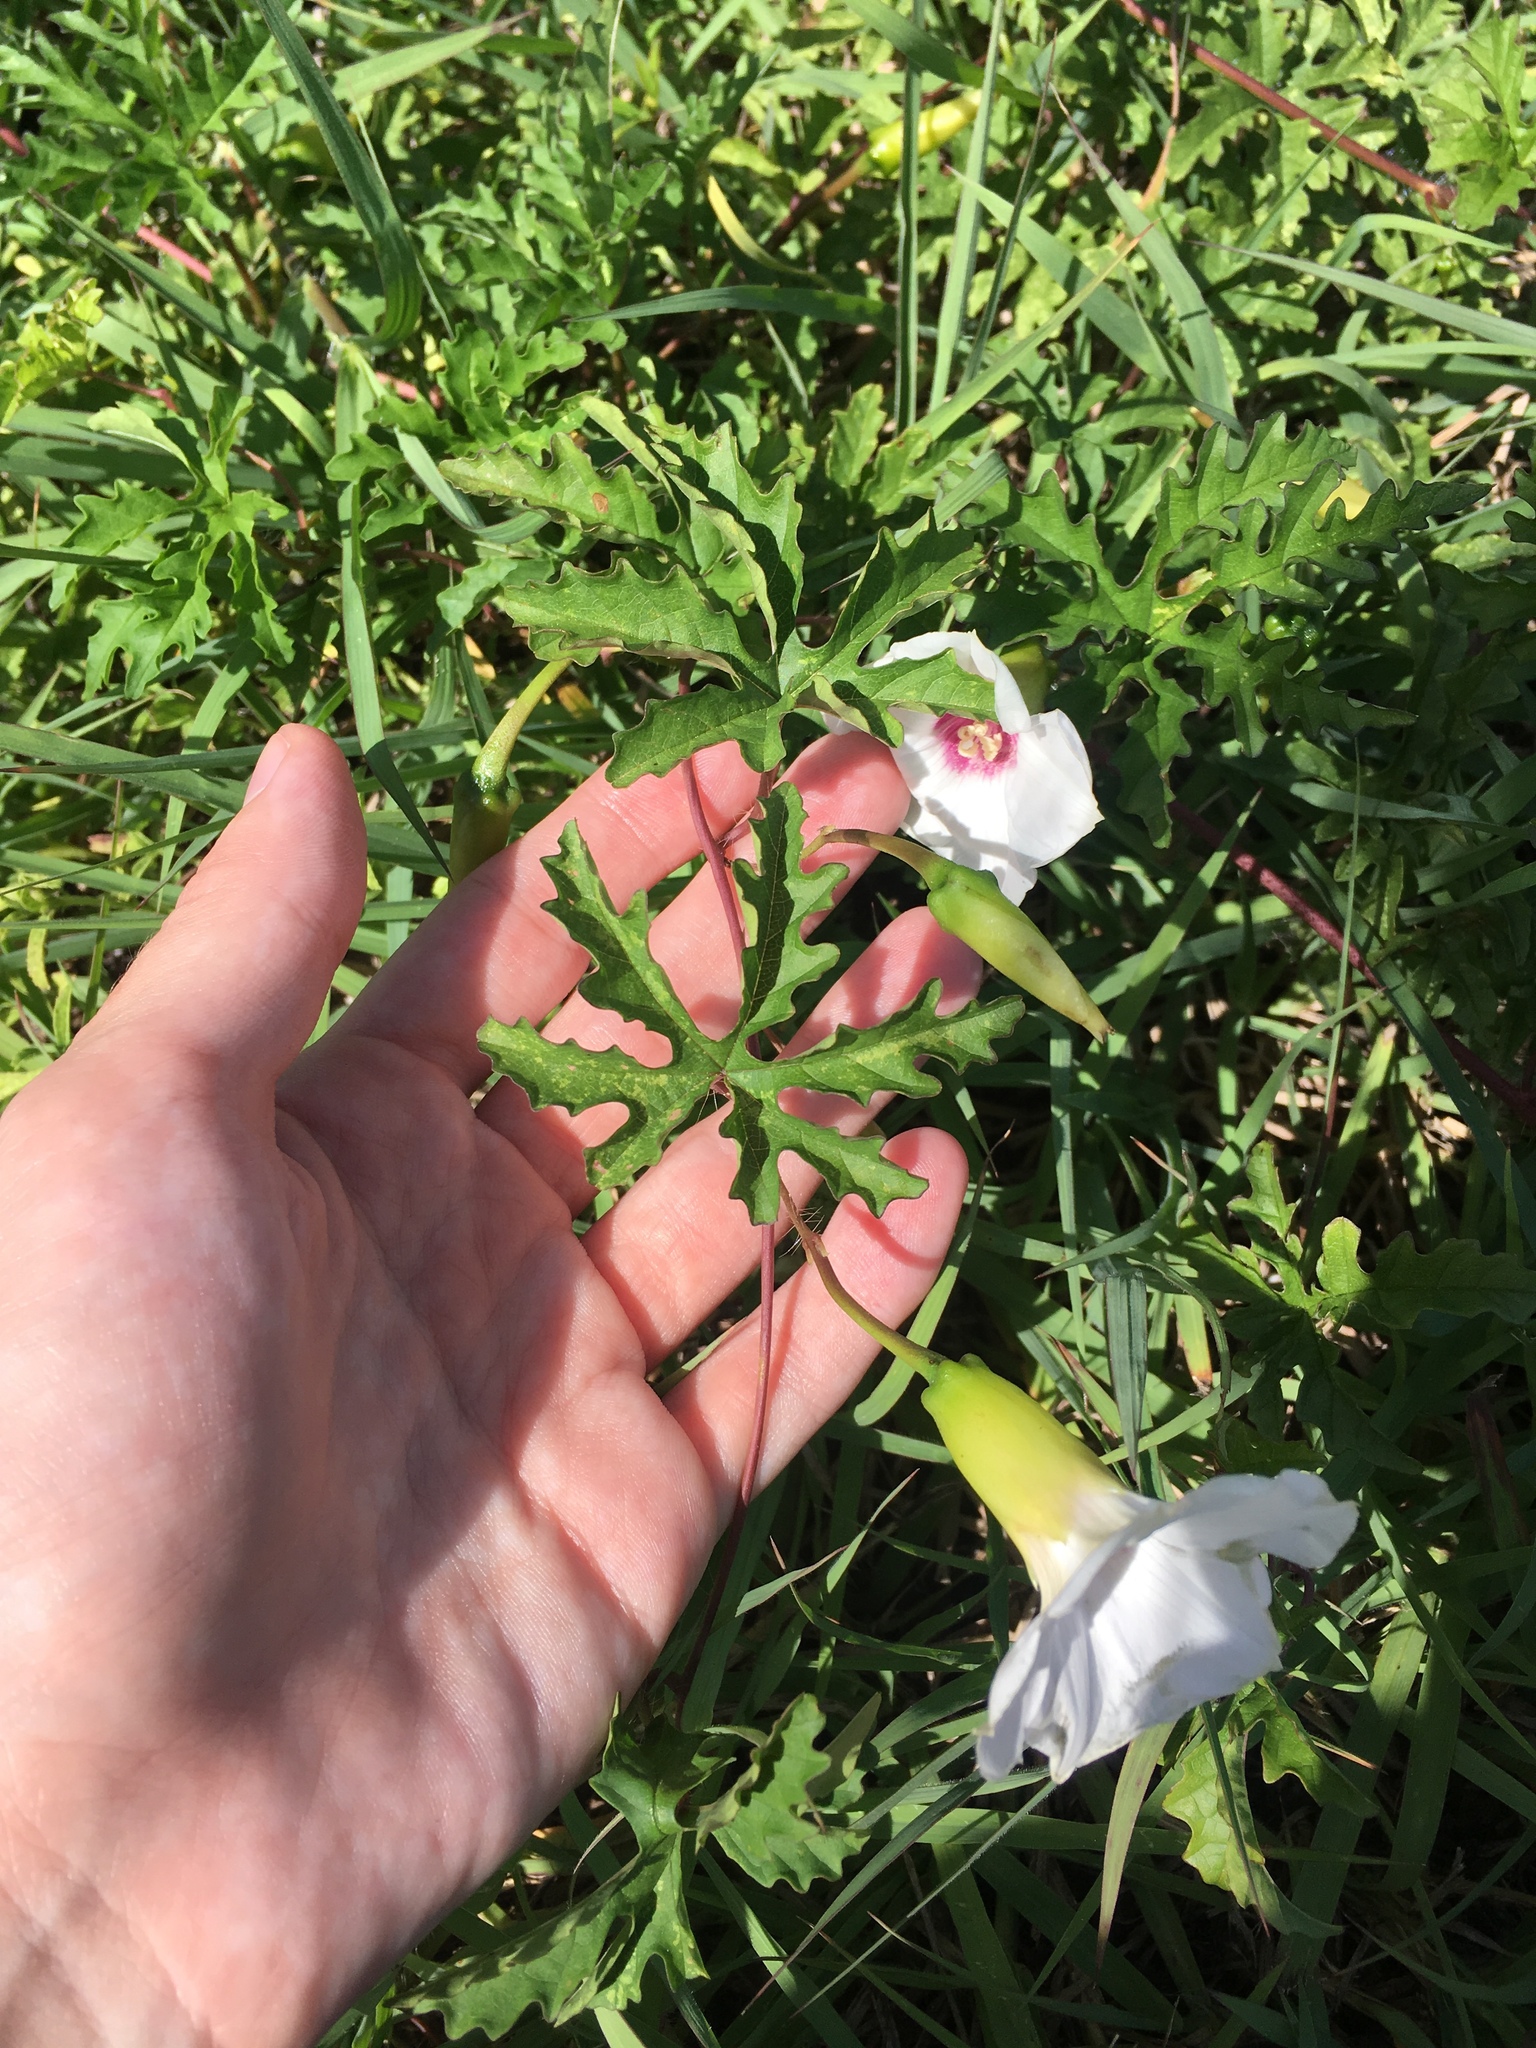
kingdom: Plantae
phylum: Tracheophyta
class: Magnoliopsida
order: Solanales
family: Convolvulaceae
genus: Distimake
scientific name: Distimake dissectus
